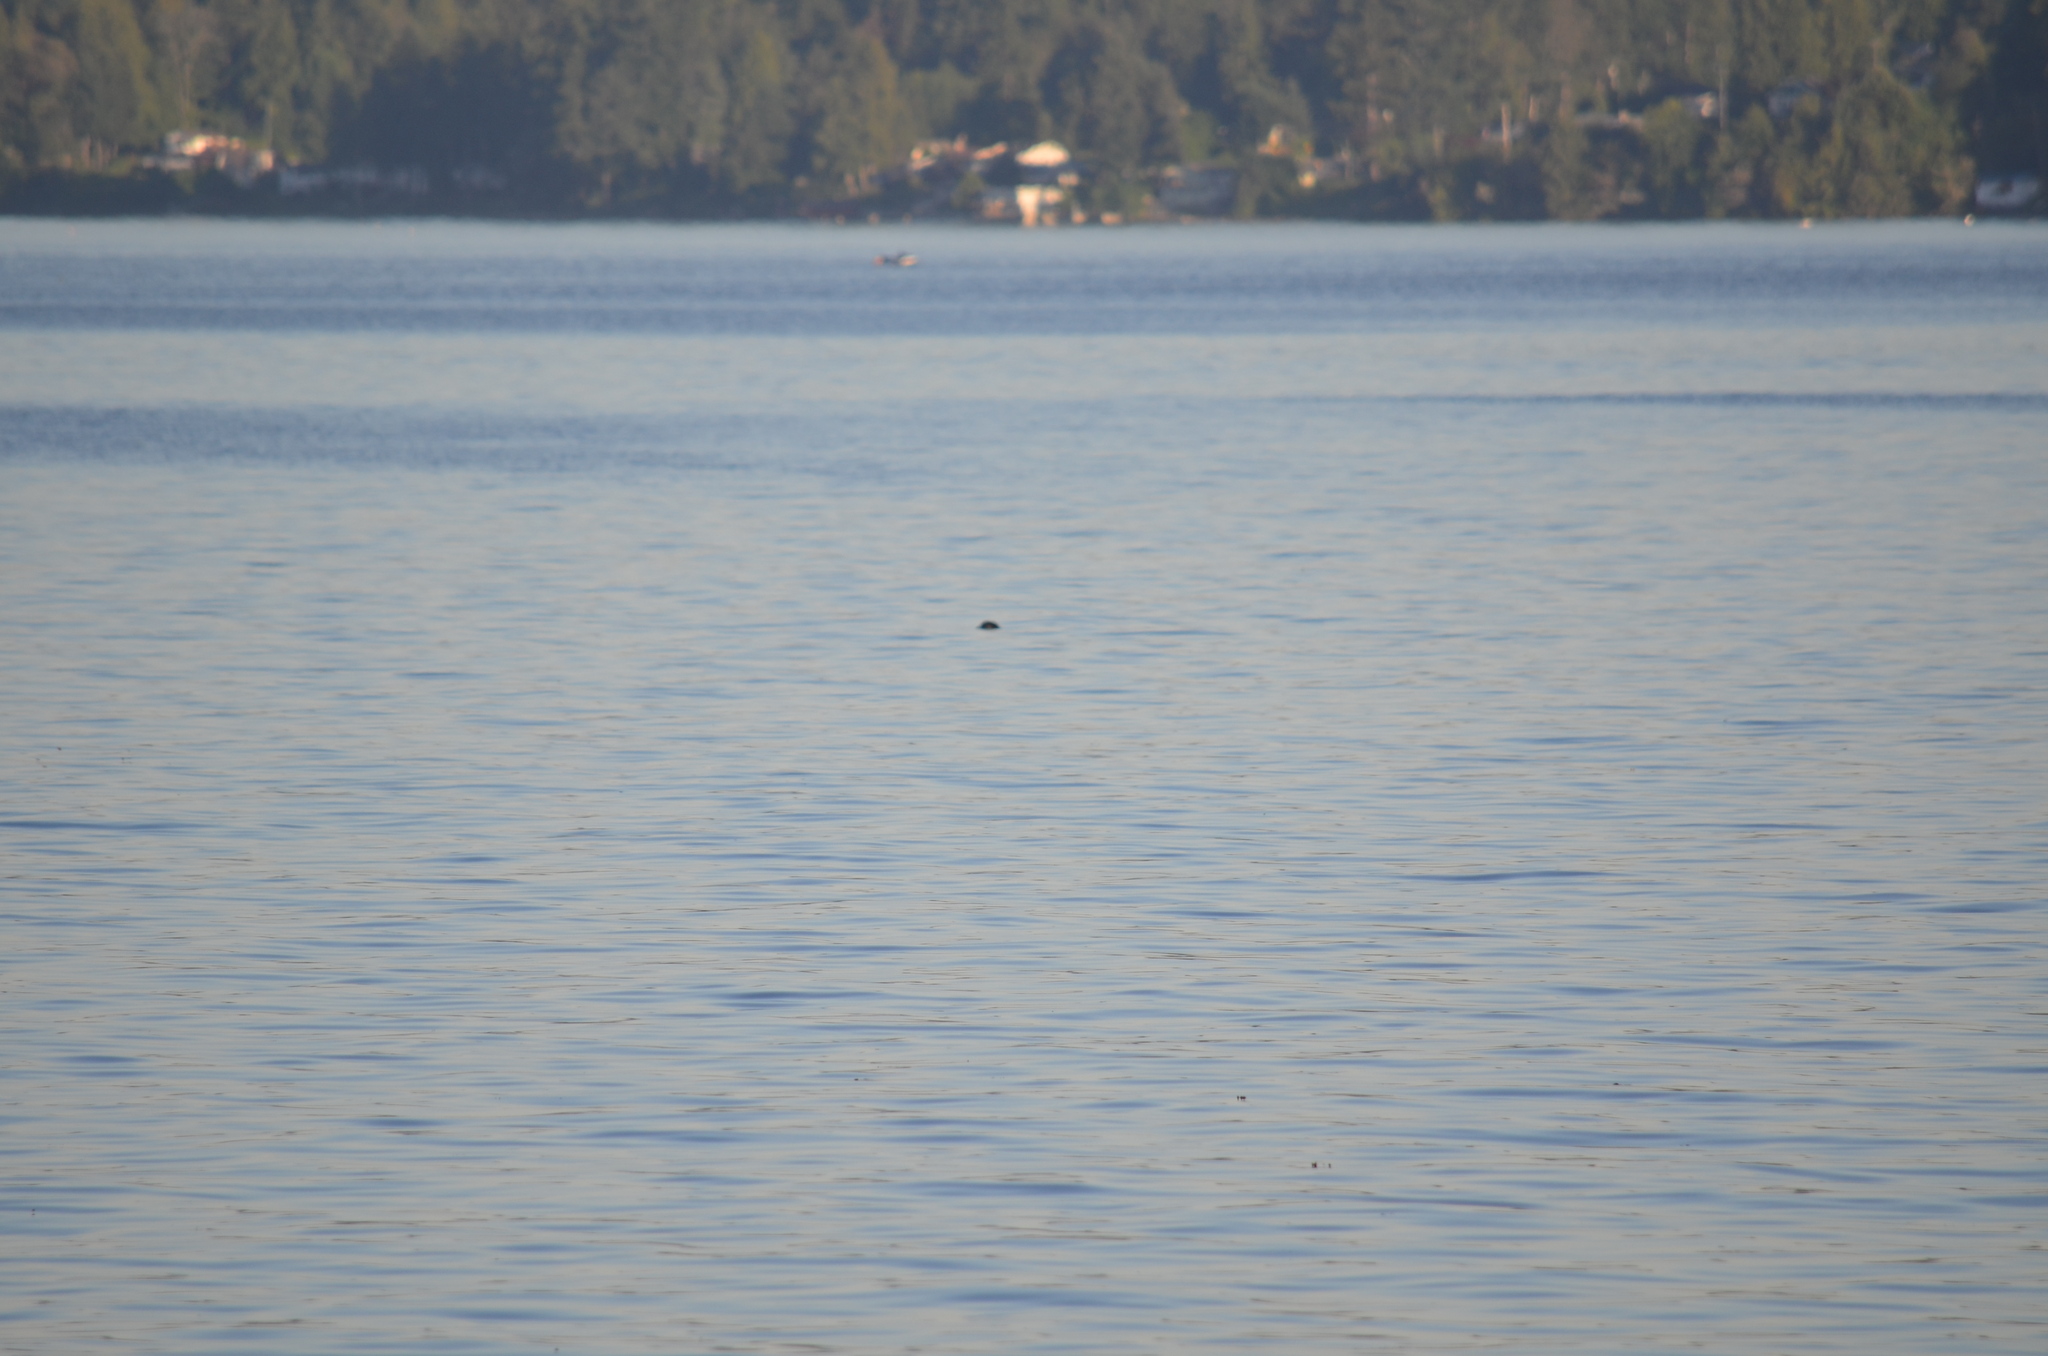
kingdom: Animalia
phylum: Chordata
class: Mammalia
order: Carnivora
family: Phocidae
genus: Phoca
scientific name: Phoca vitulina
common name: Harbor seal
